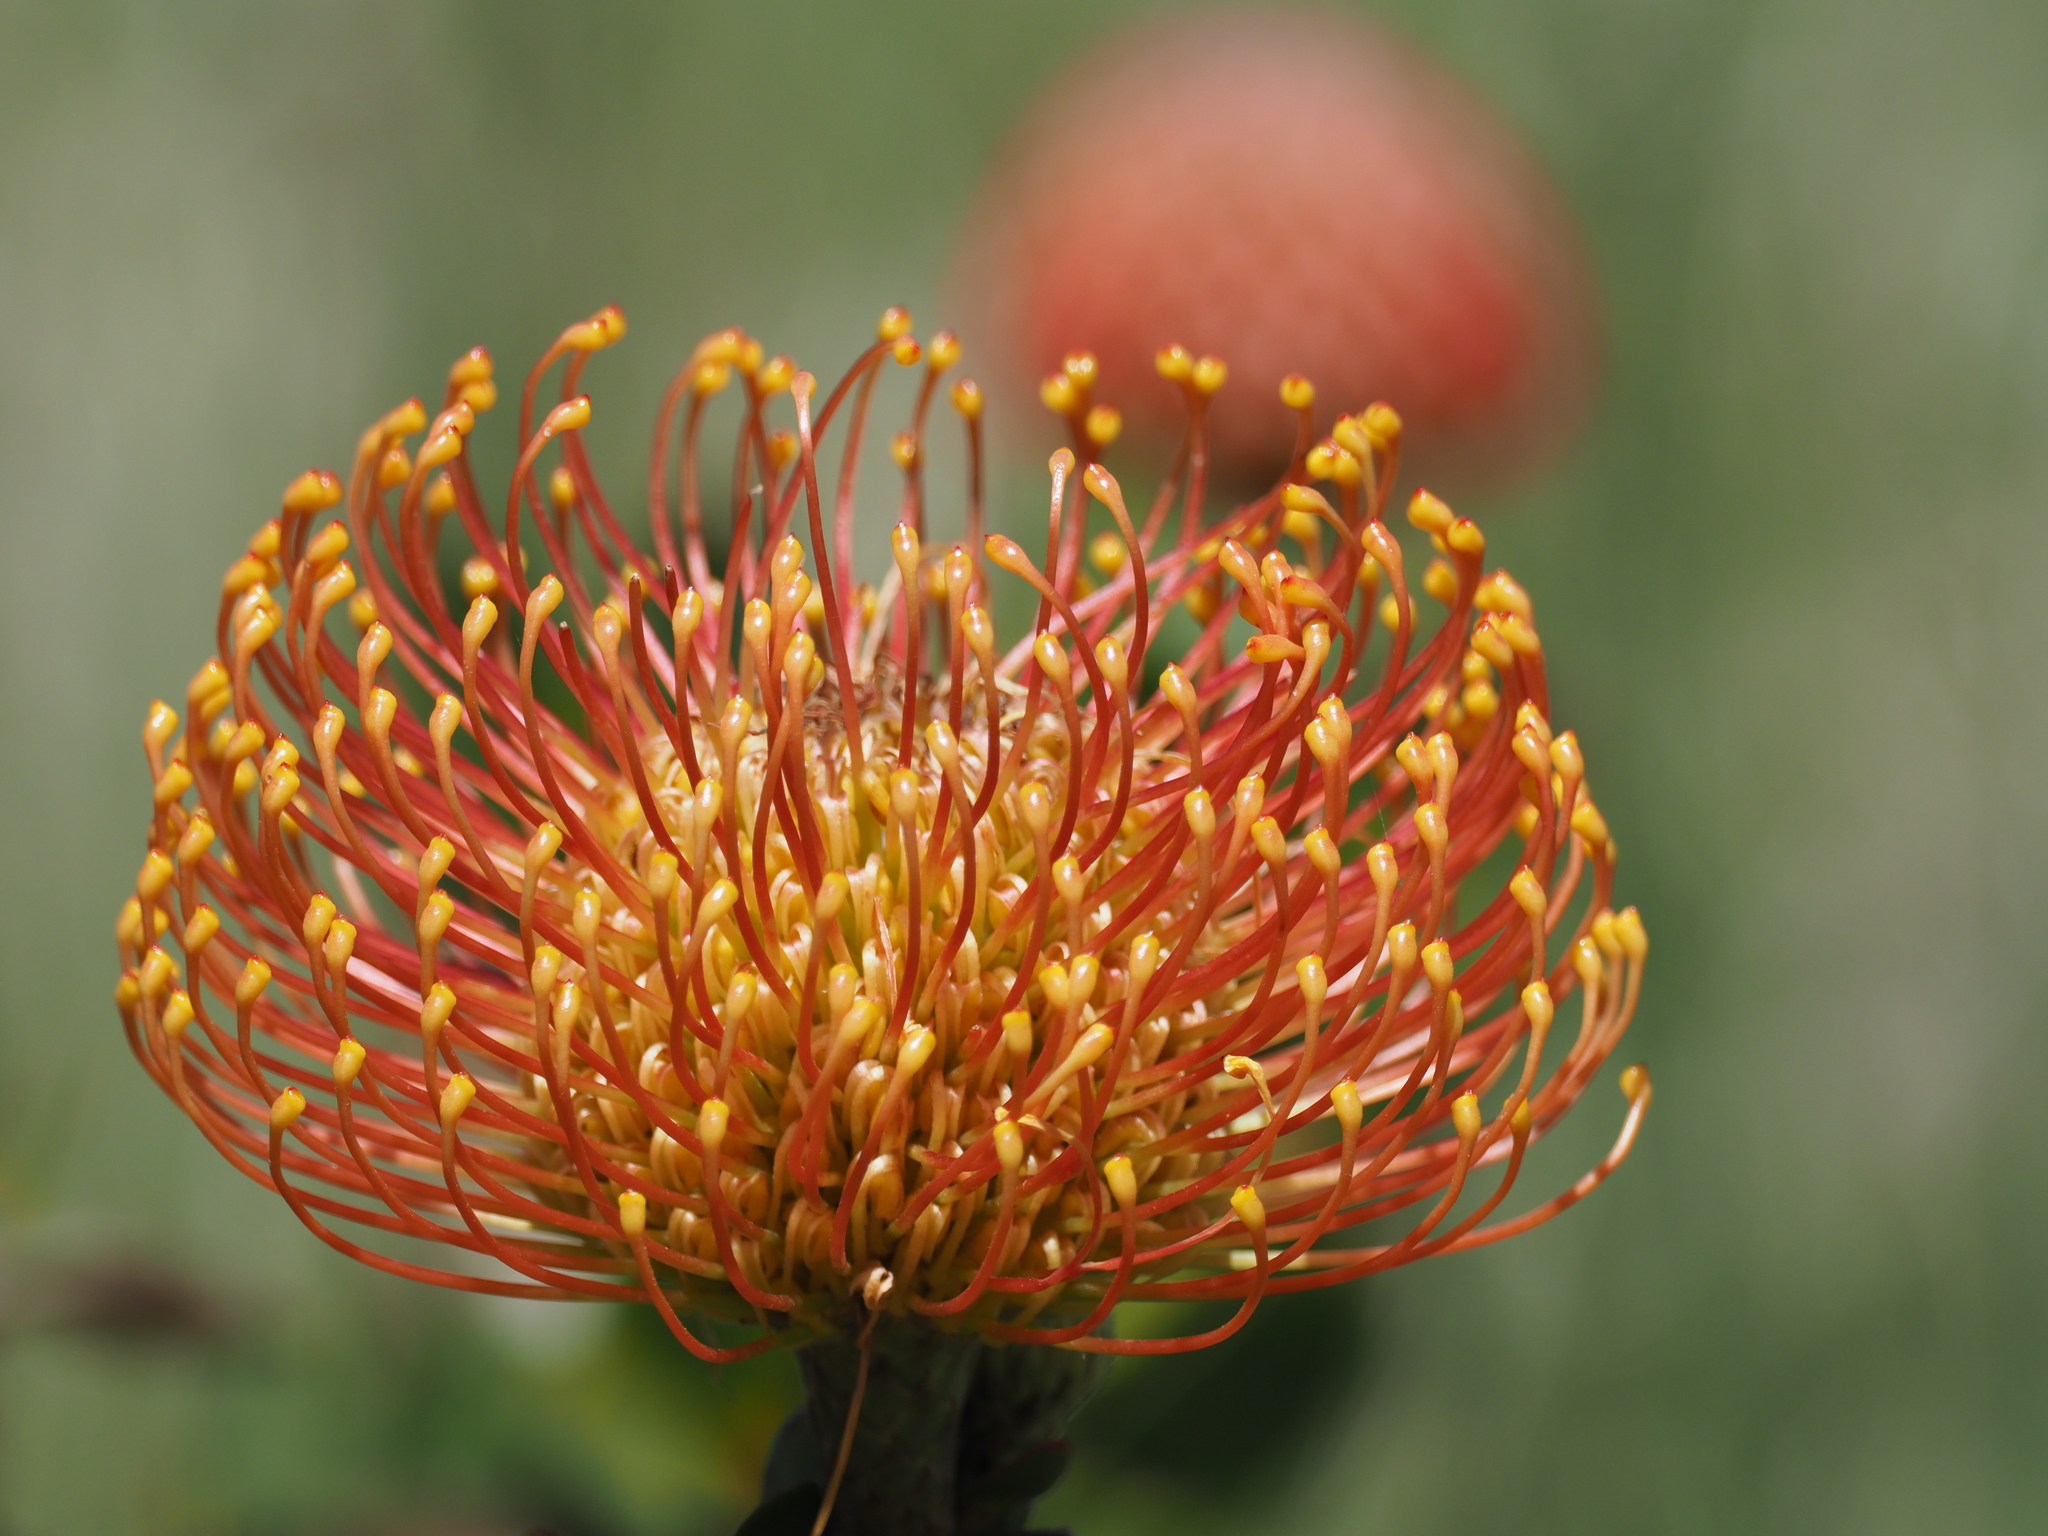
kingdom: Plantae
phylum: Tracheophyta
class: Magnoliopsida
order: Proteales
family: Proteaceae
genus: Leucospermum
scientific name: Leucospermum cordifolium
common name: Red pincushion-protea
